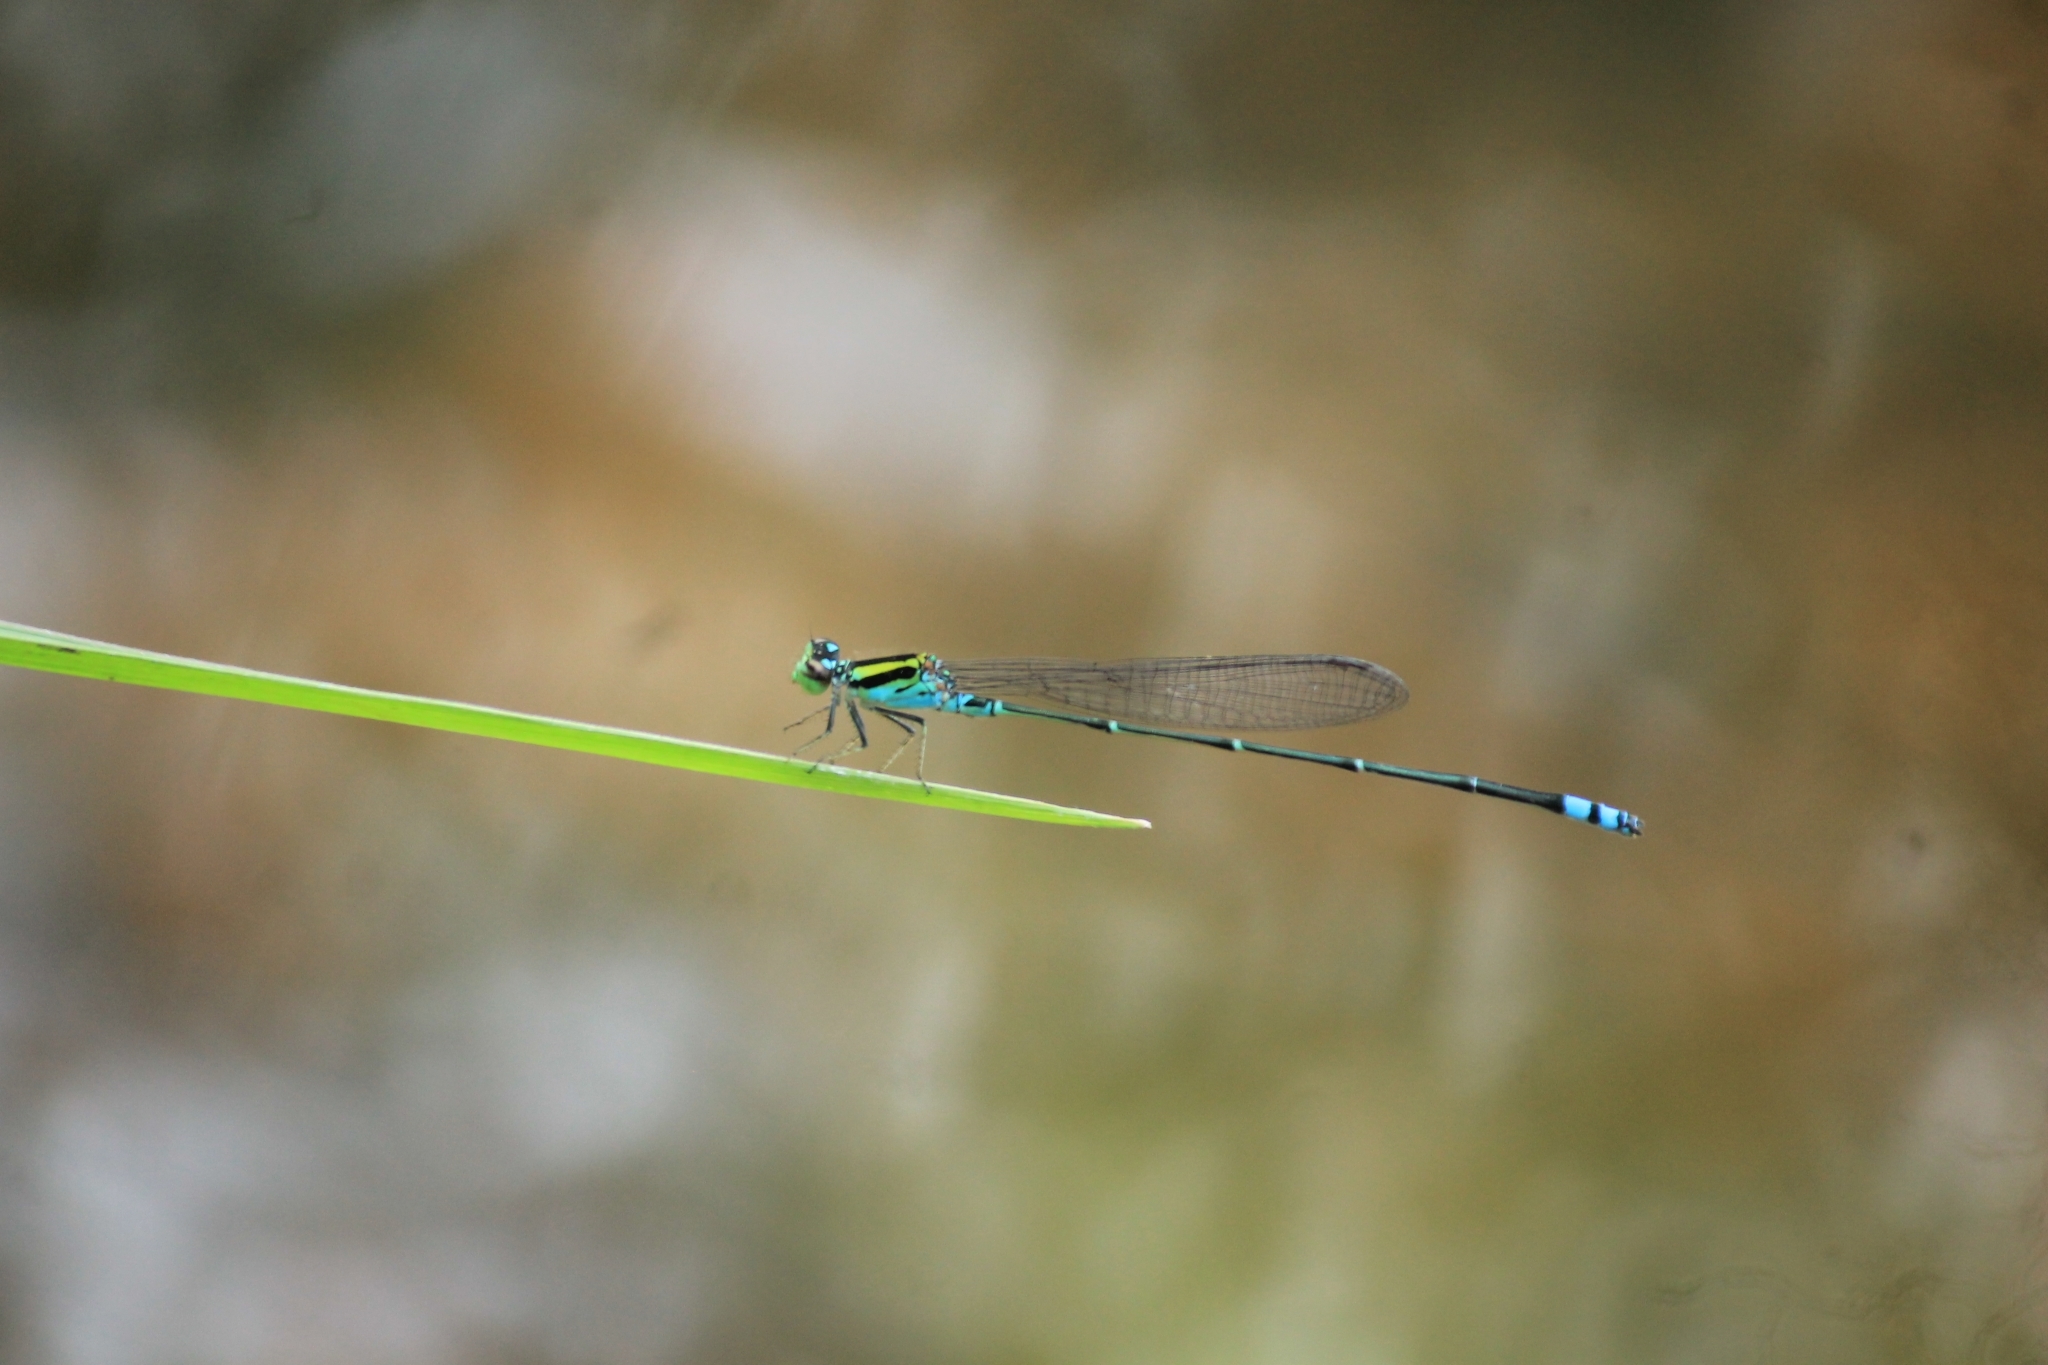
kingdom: Animalia
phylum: Arthropoda
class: Insecta
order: Odonata
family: Coenagrionidae
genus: Pseudagrion
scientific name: Pseudagrion indicum
